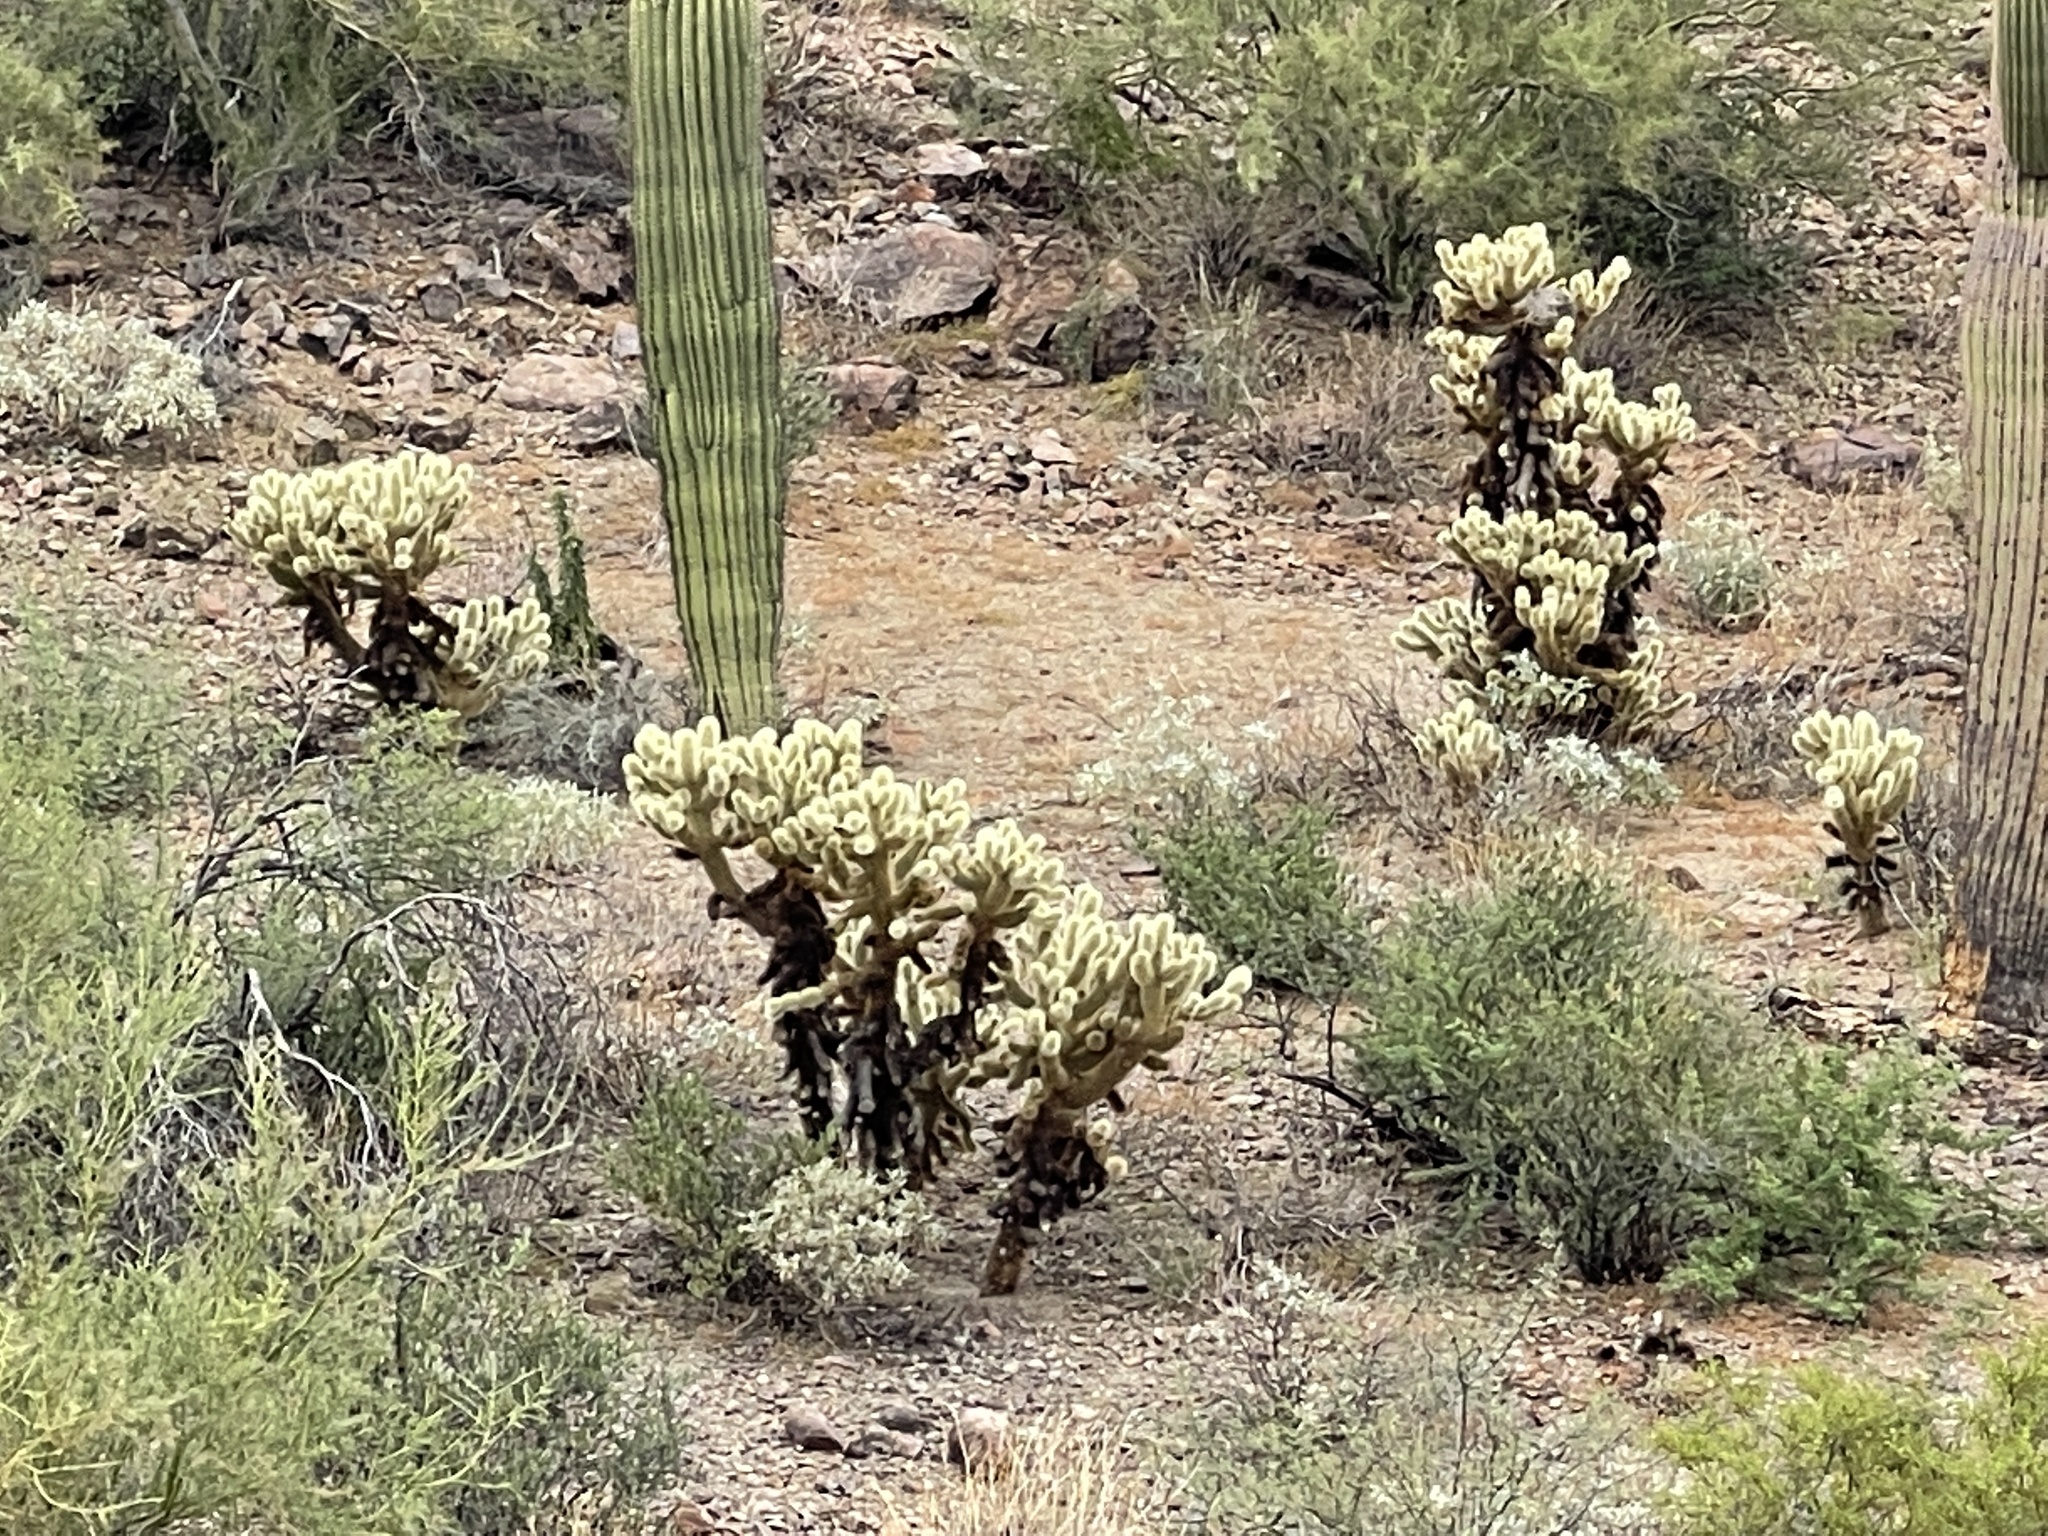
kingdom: Plantae
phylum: Tracheophyta
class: Magnoliopsida
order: Caryophyllales
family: Cactaceae
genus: Cylindropuntia
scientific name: Cylindropuntia fosbergii
